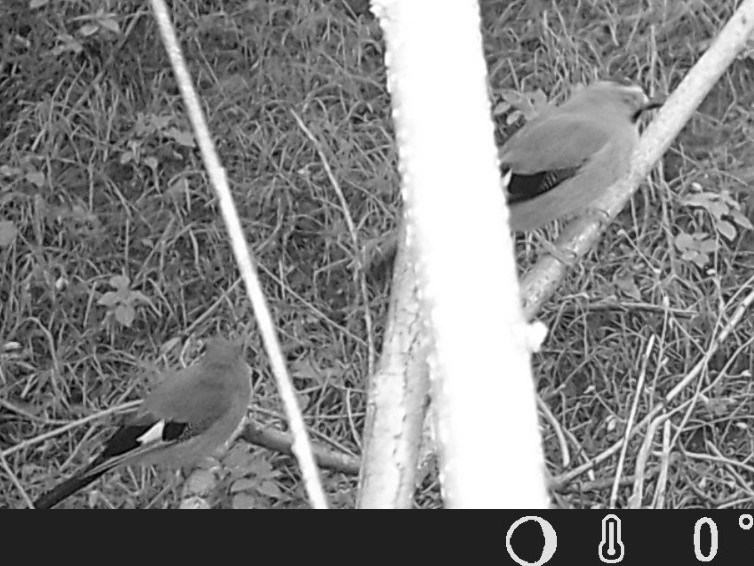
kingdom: Animalia
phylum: Chordata
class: Aves
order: Passeriformes
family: Corvidae
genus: Garrulus
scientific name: Garrulus glandarius
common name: Eurasian jay
